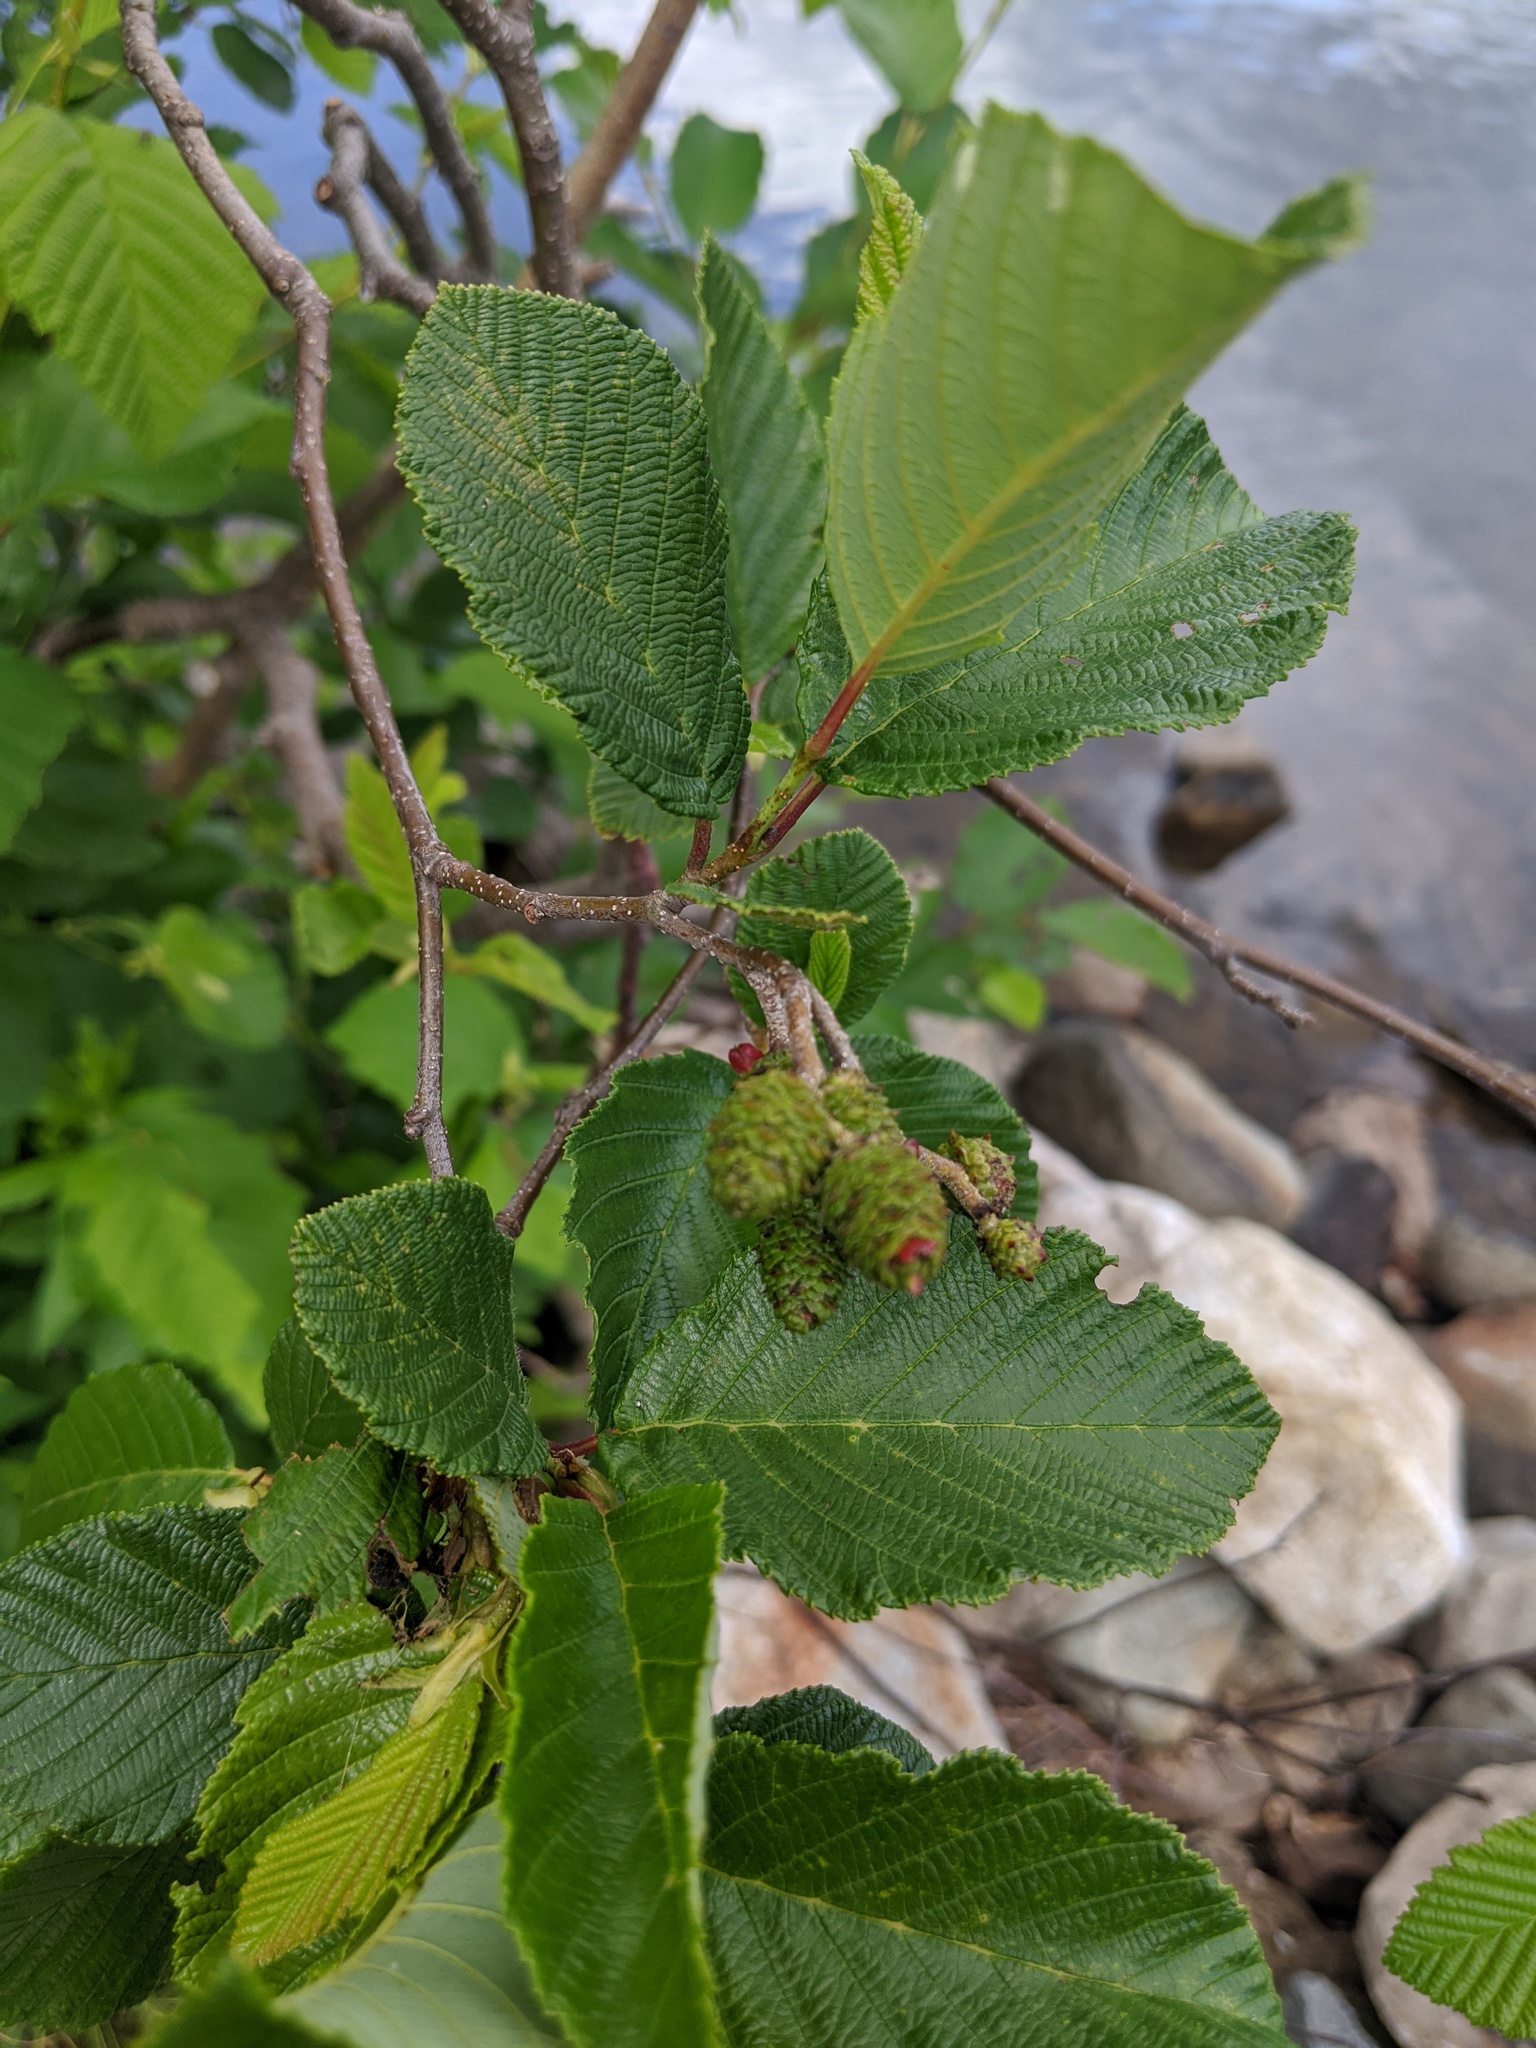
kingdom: Plantae
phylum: Tracheophyta
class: Magnoliopsida
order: Fagales
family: Betulaceae
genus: Alnus
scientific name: Alnus incana
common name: Grey alder
